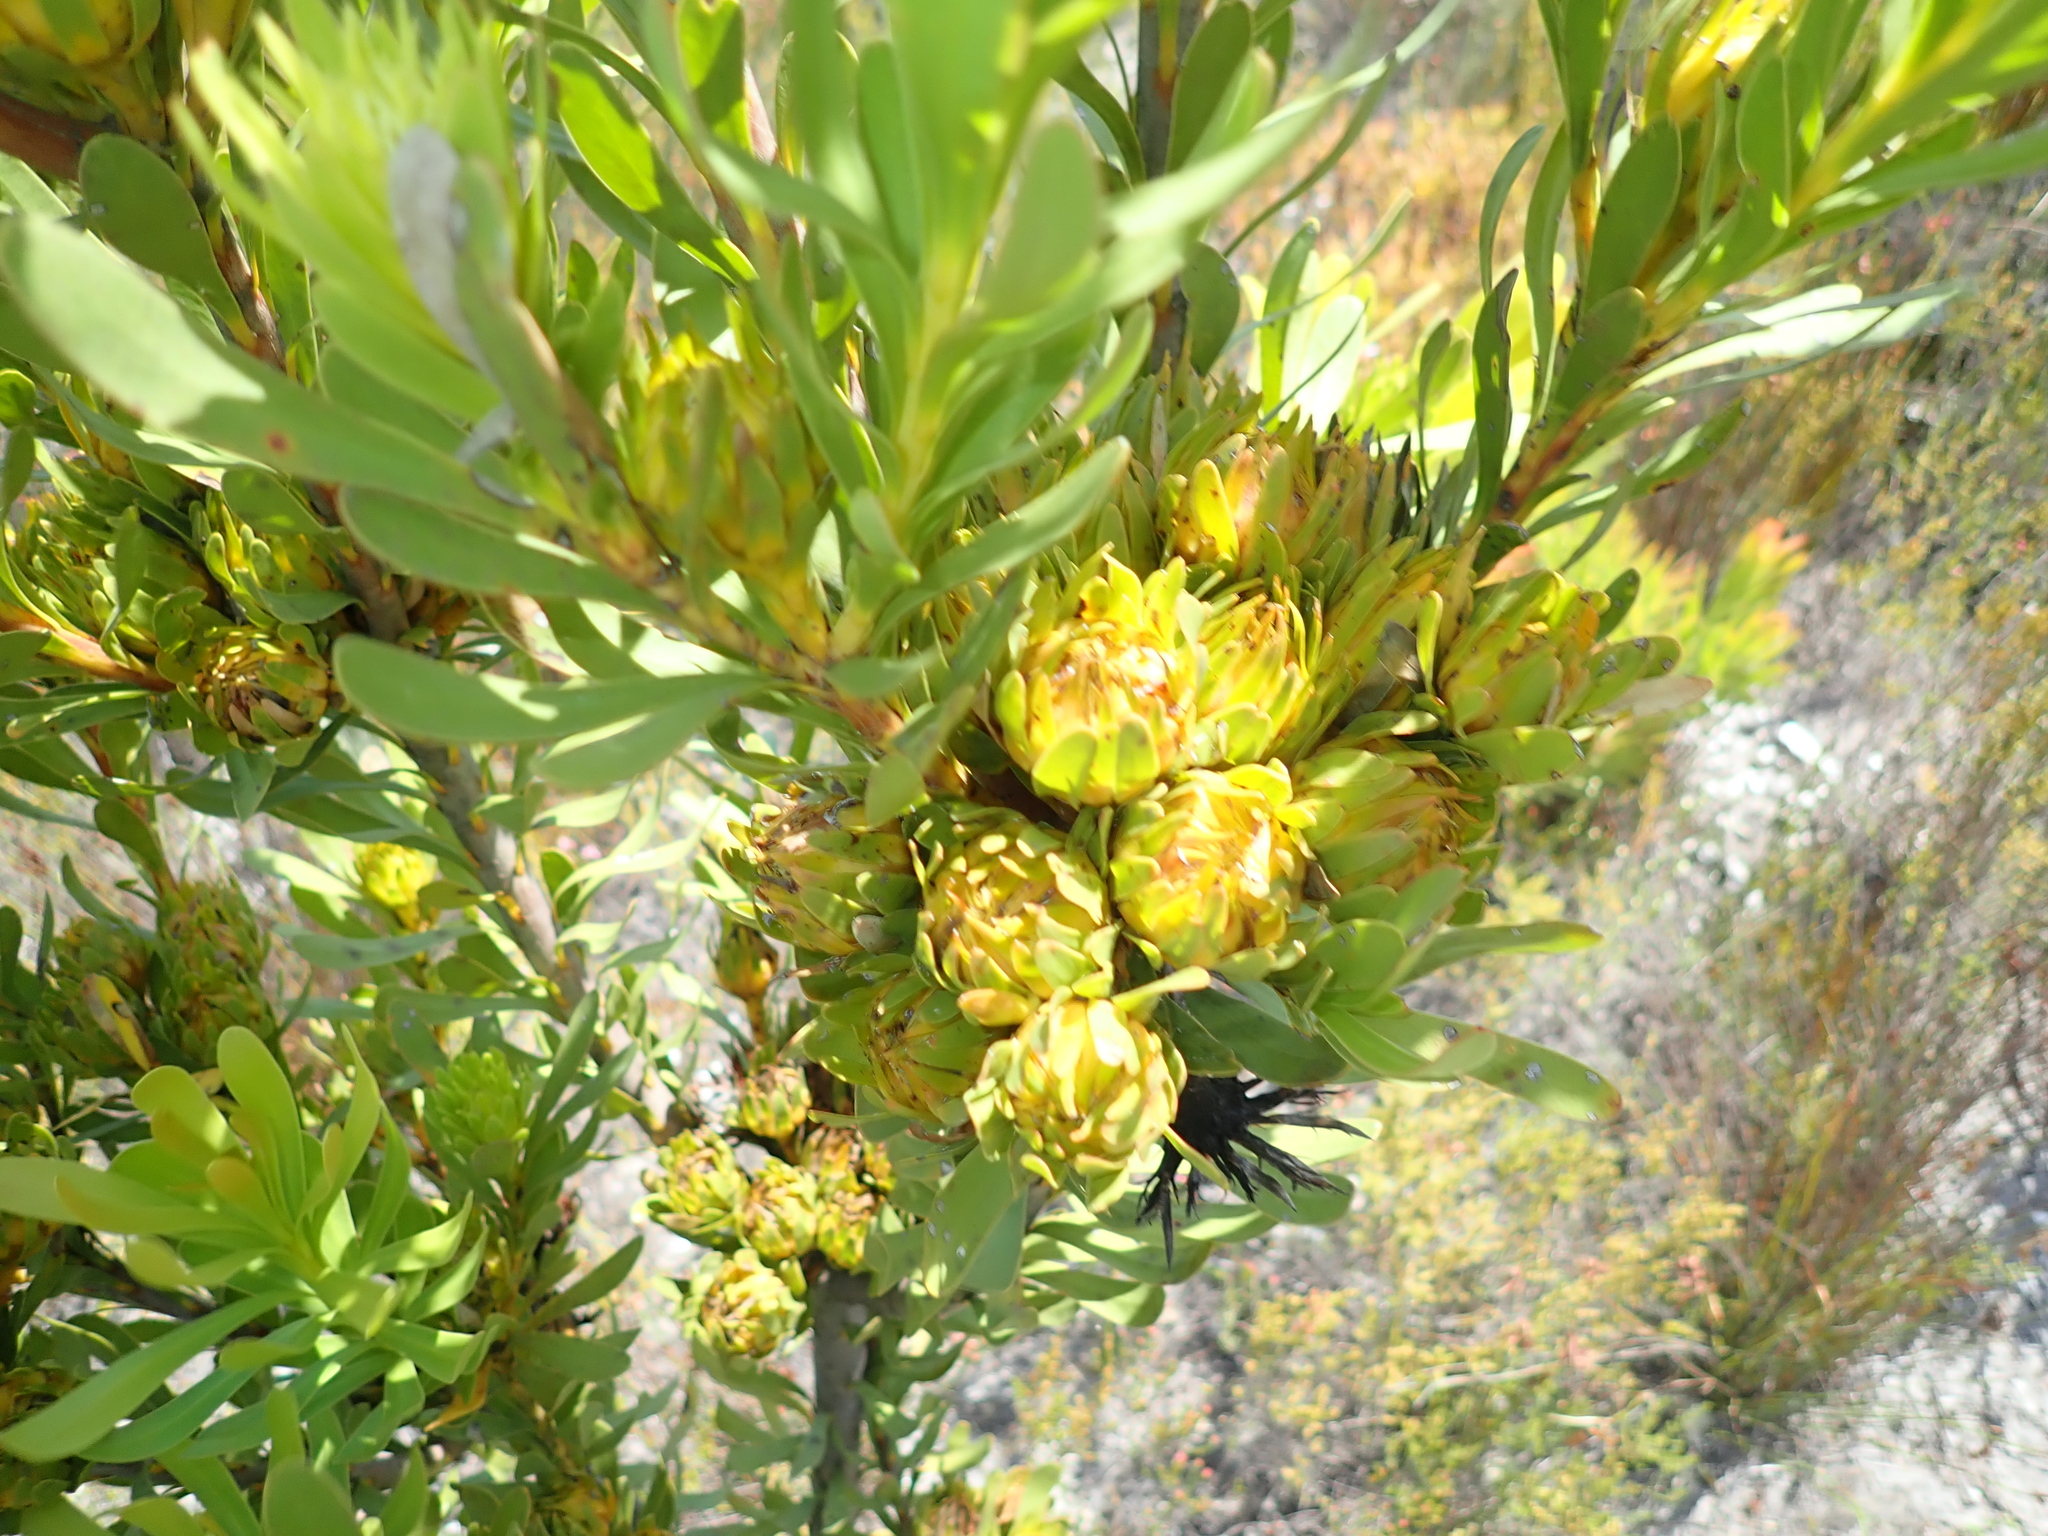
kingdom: Plantae
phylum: Tracheophyta
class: Magnoliopsida
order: Proteales
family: Proteaceae
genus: Aulax
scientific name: Aulax umbellata
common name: Broad-leaf featherbush
